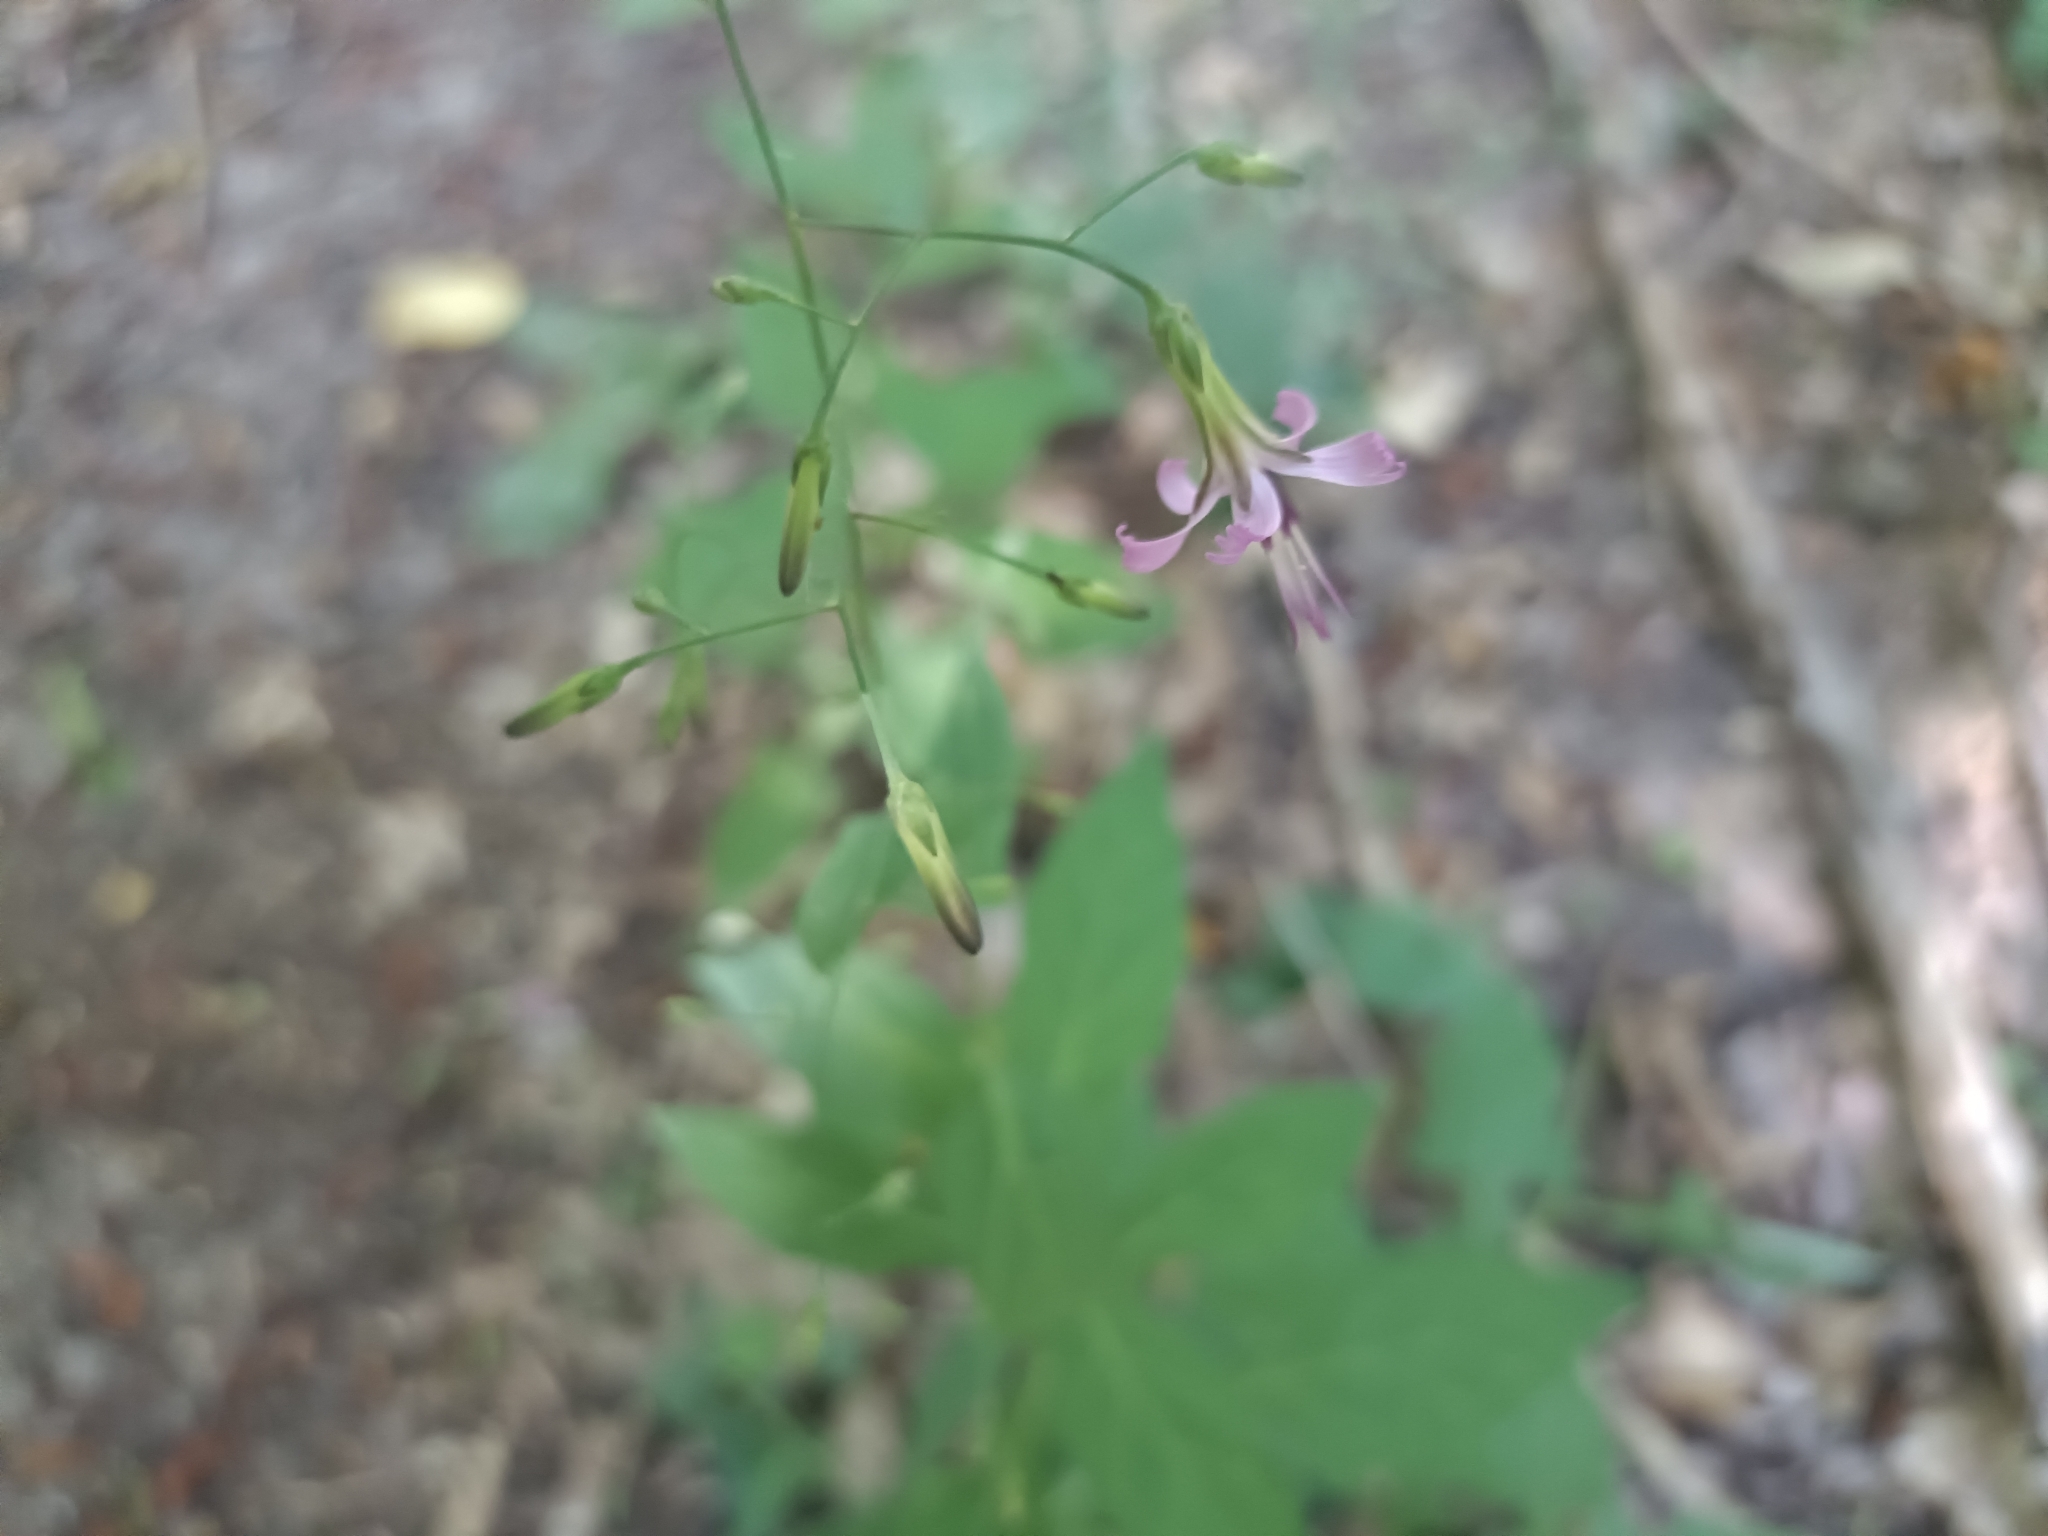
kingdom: Plantae
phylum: Tracheophyta
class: Magnoliopsida
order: Asterales
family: Asteraceae
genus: Prenanthes
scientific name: Prenanthes purpurea
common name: Purple lettuce
